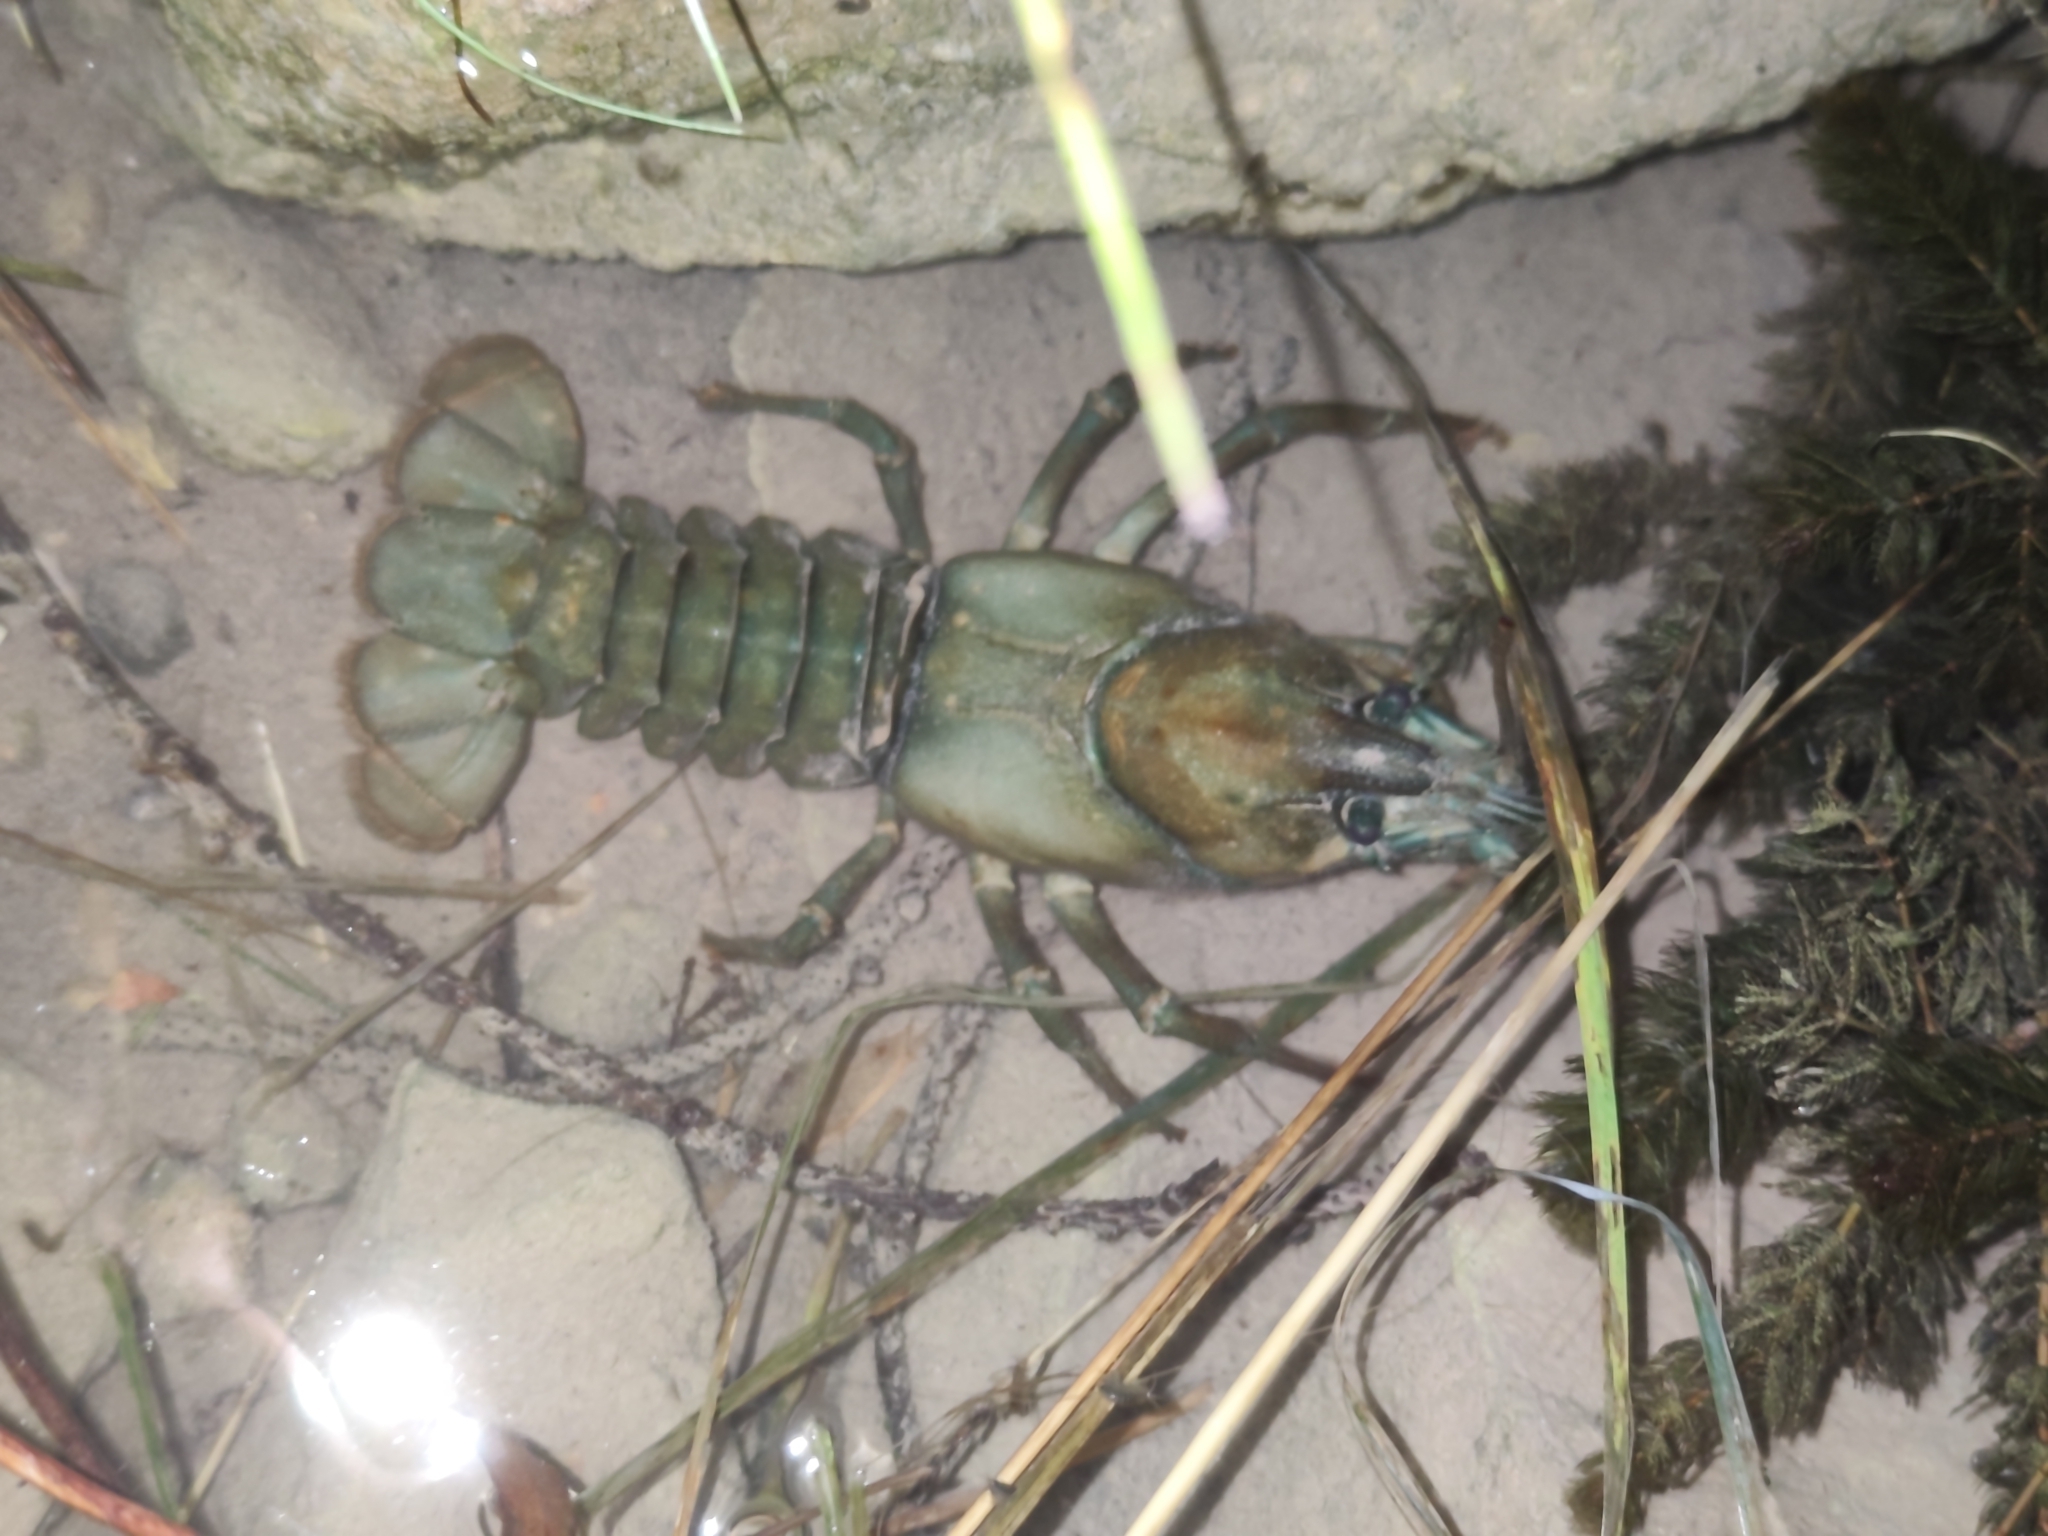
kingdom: Animalia
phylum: Arthropoda
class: Malacostraca
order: Decapoda
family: Astacidae
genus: Pacifastacus
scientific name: Pacifastacus leniusculus
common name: Signal crayfish
